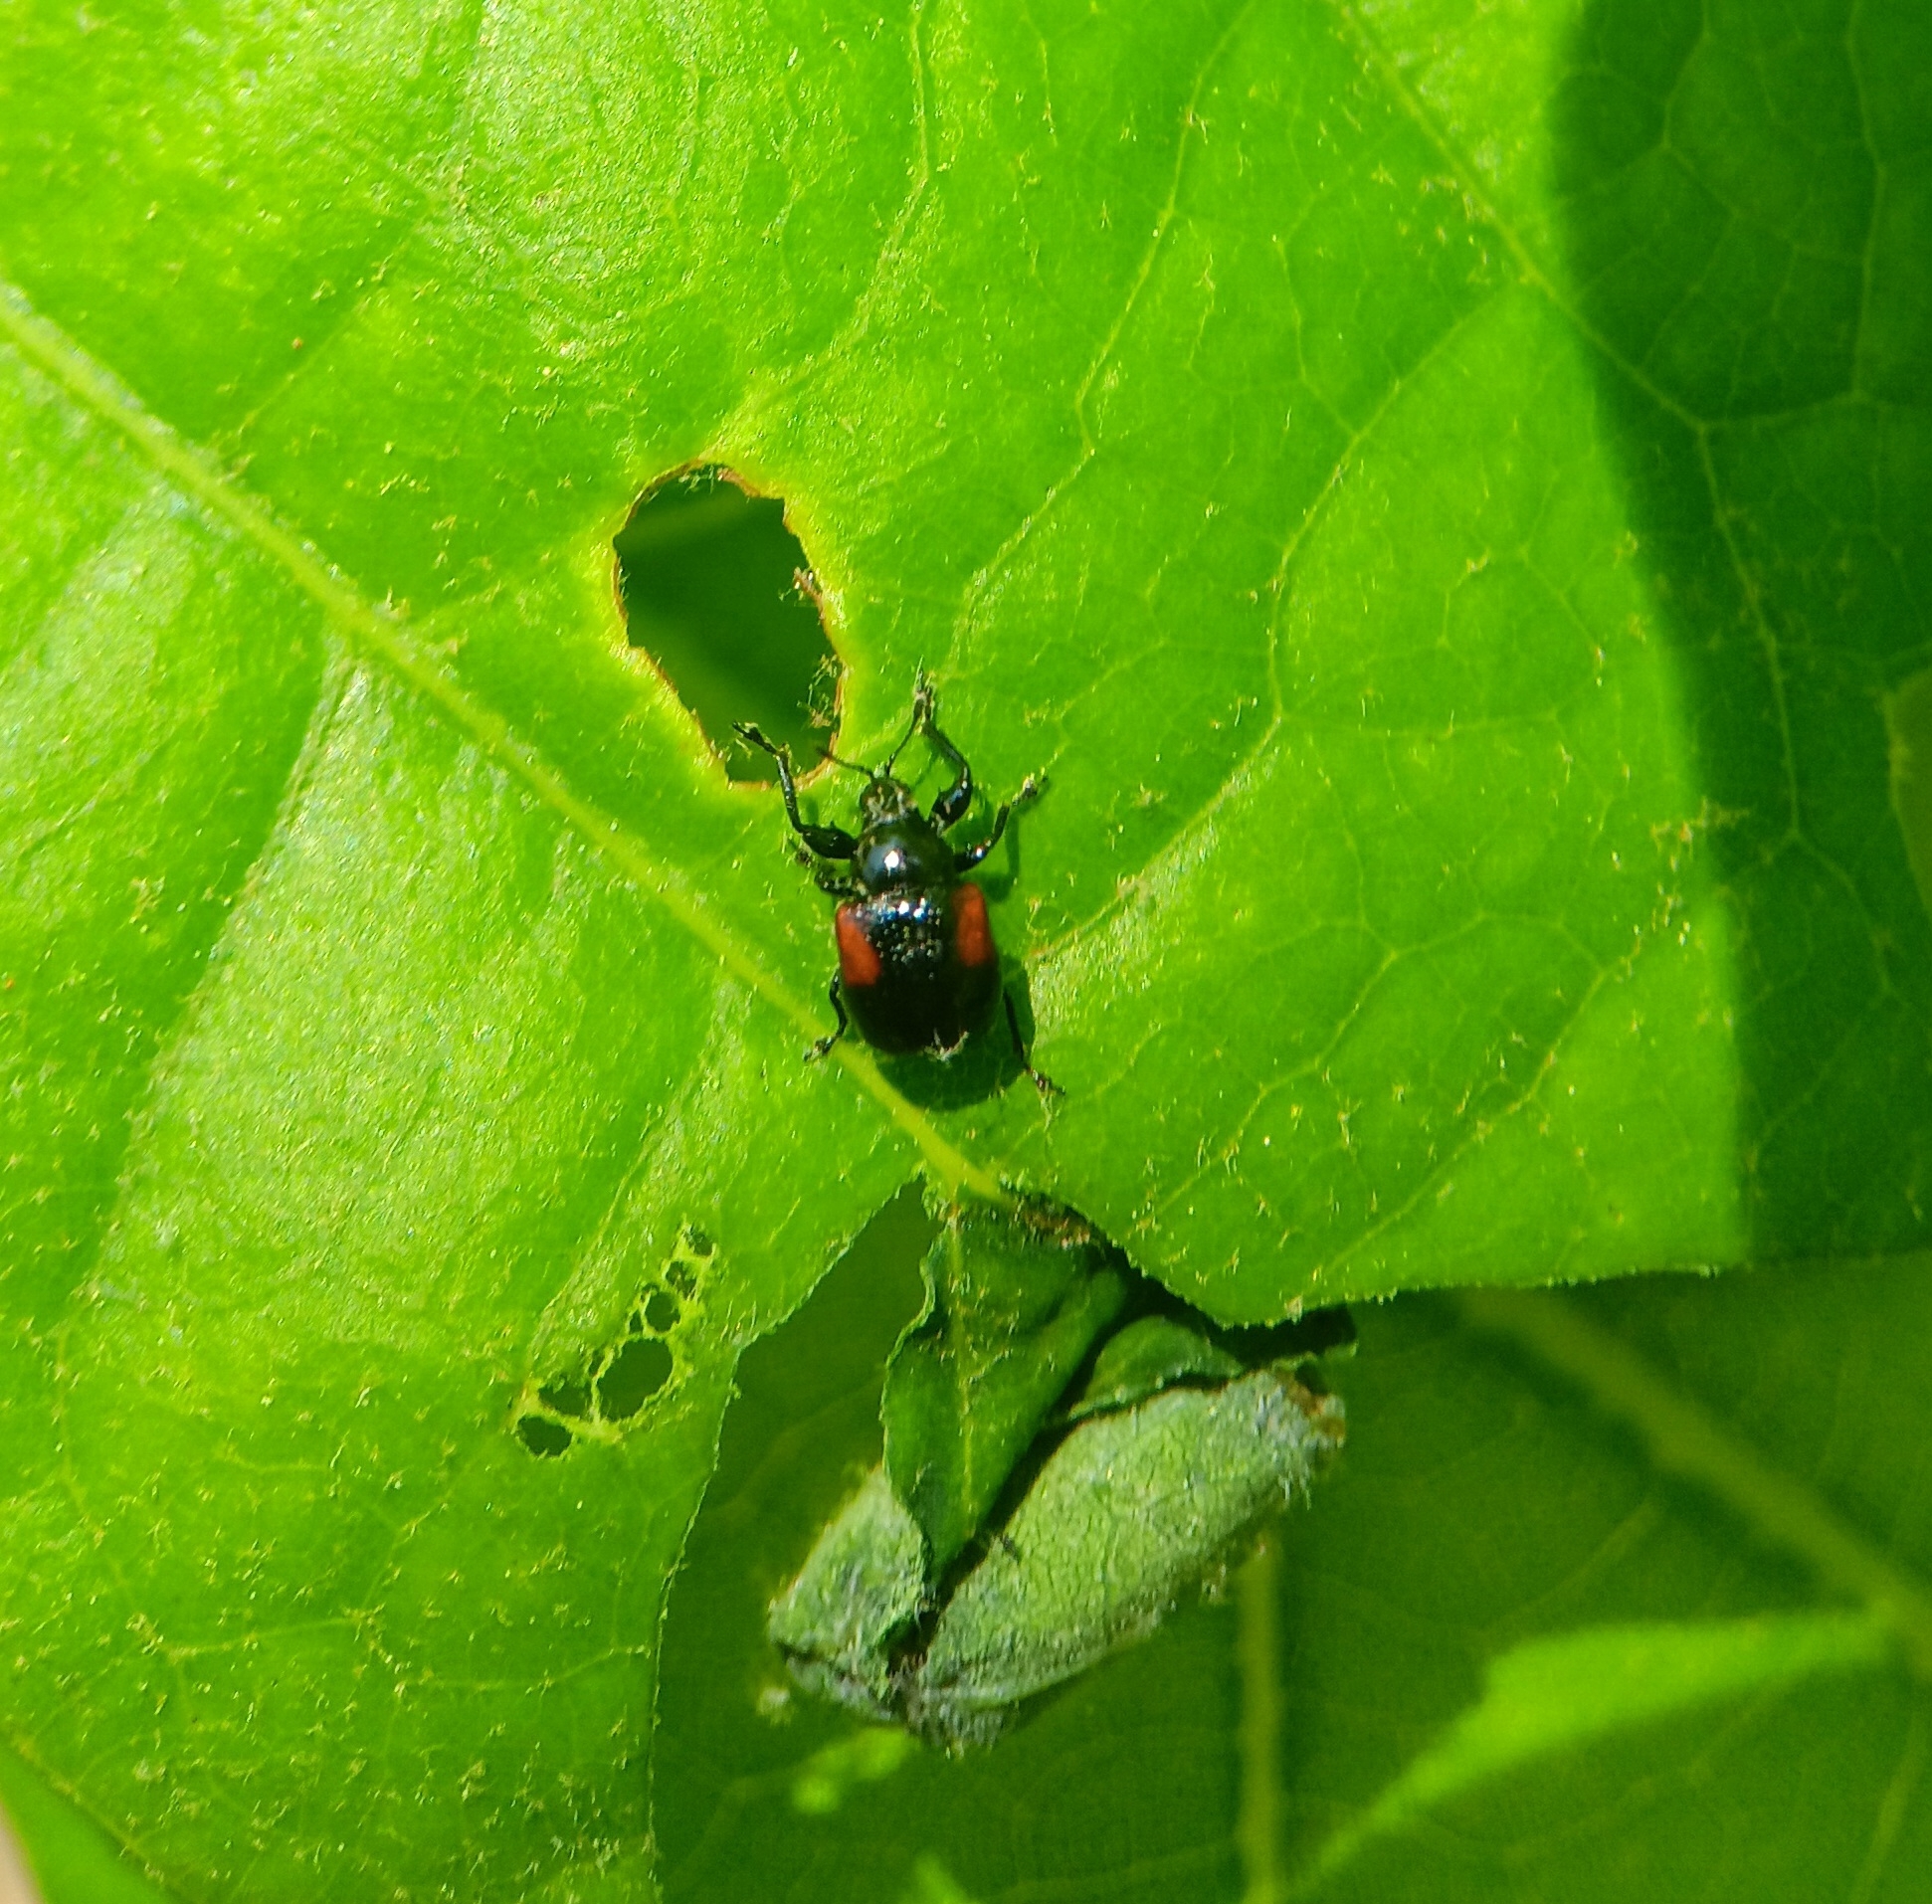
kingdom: Animalia
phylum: Arthropoda
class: Insecta
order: Coleoptera
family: Attelabidae
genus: Attelabus
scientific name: Attelabus bipustulatus
